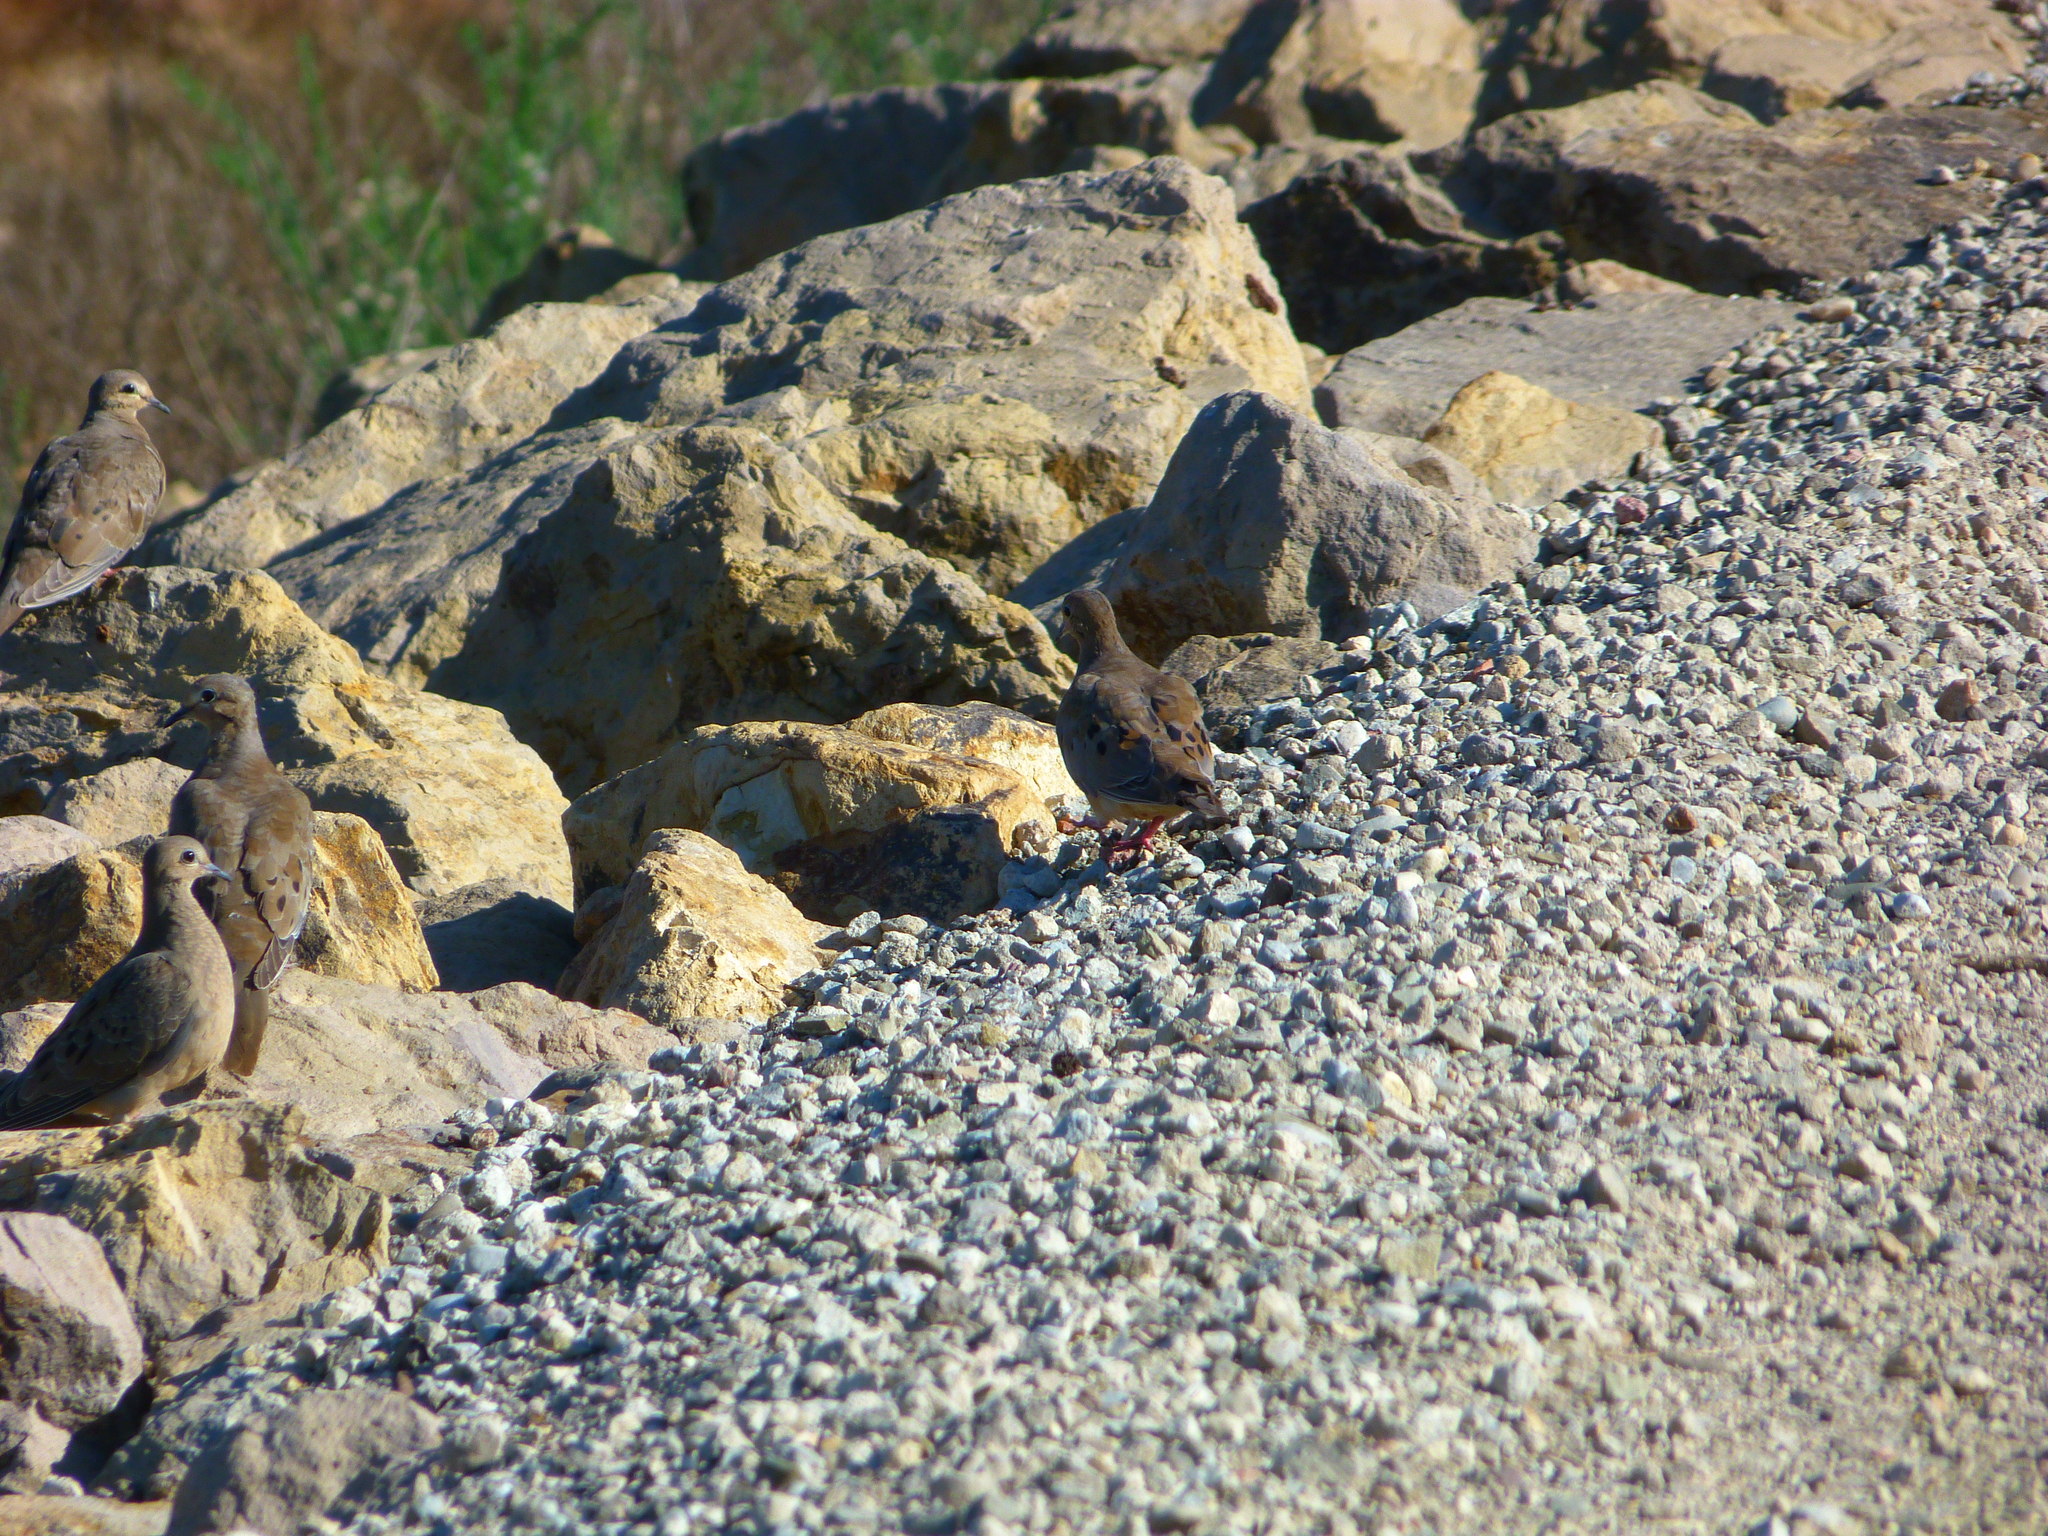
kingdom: Animalia
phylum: Chordata
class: Aves
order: Columbiformes
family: Columbidae
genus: Zenaida
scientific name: Zenaida macroura
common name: Mourning dove
